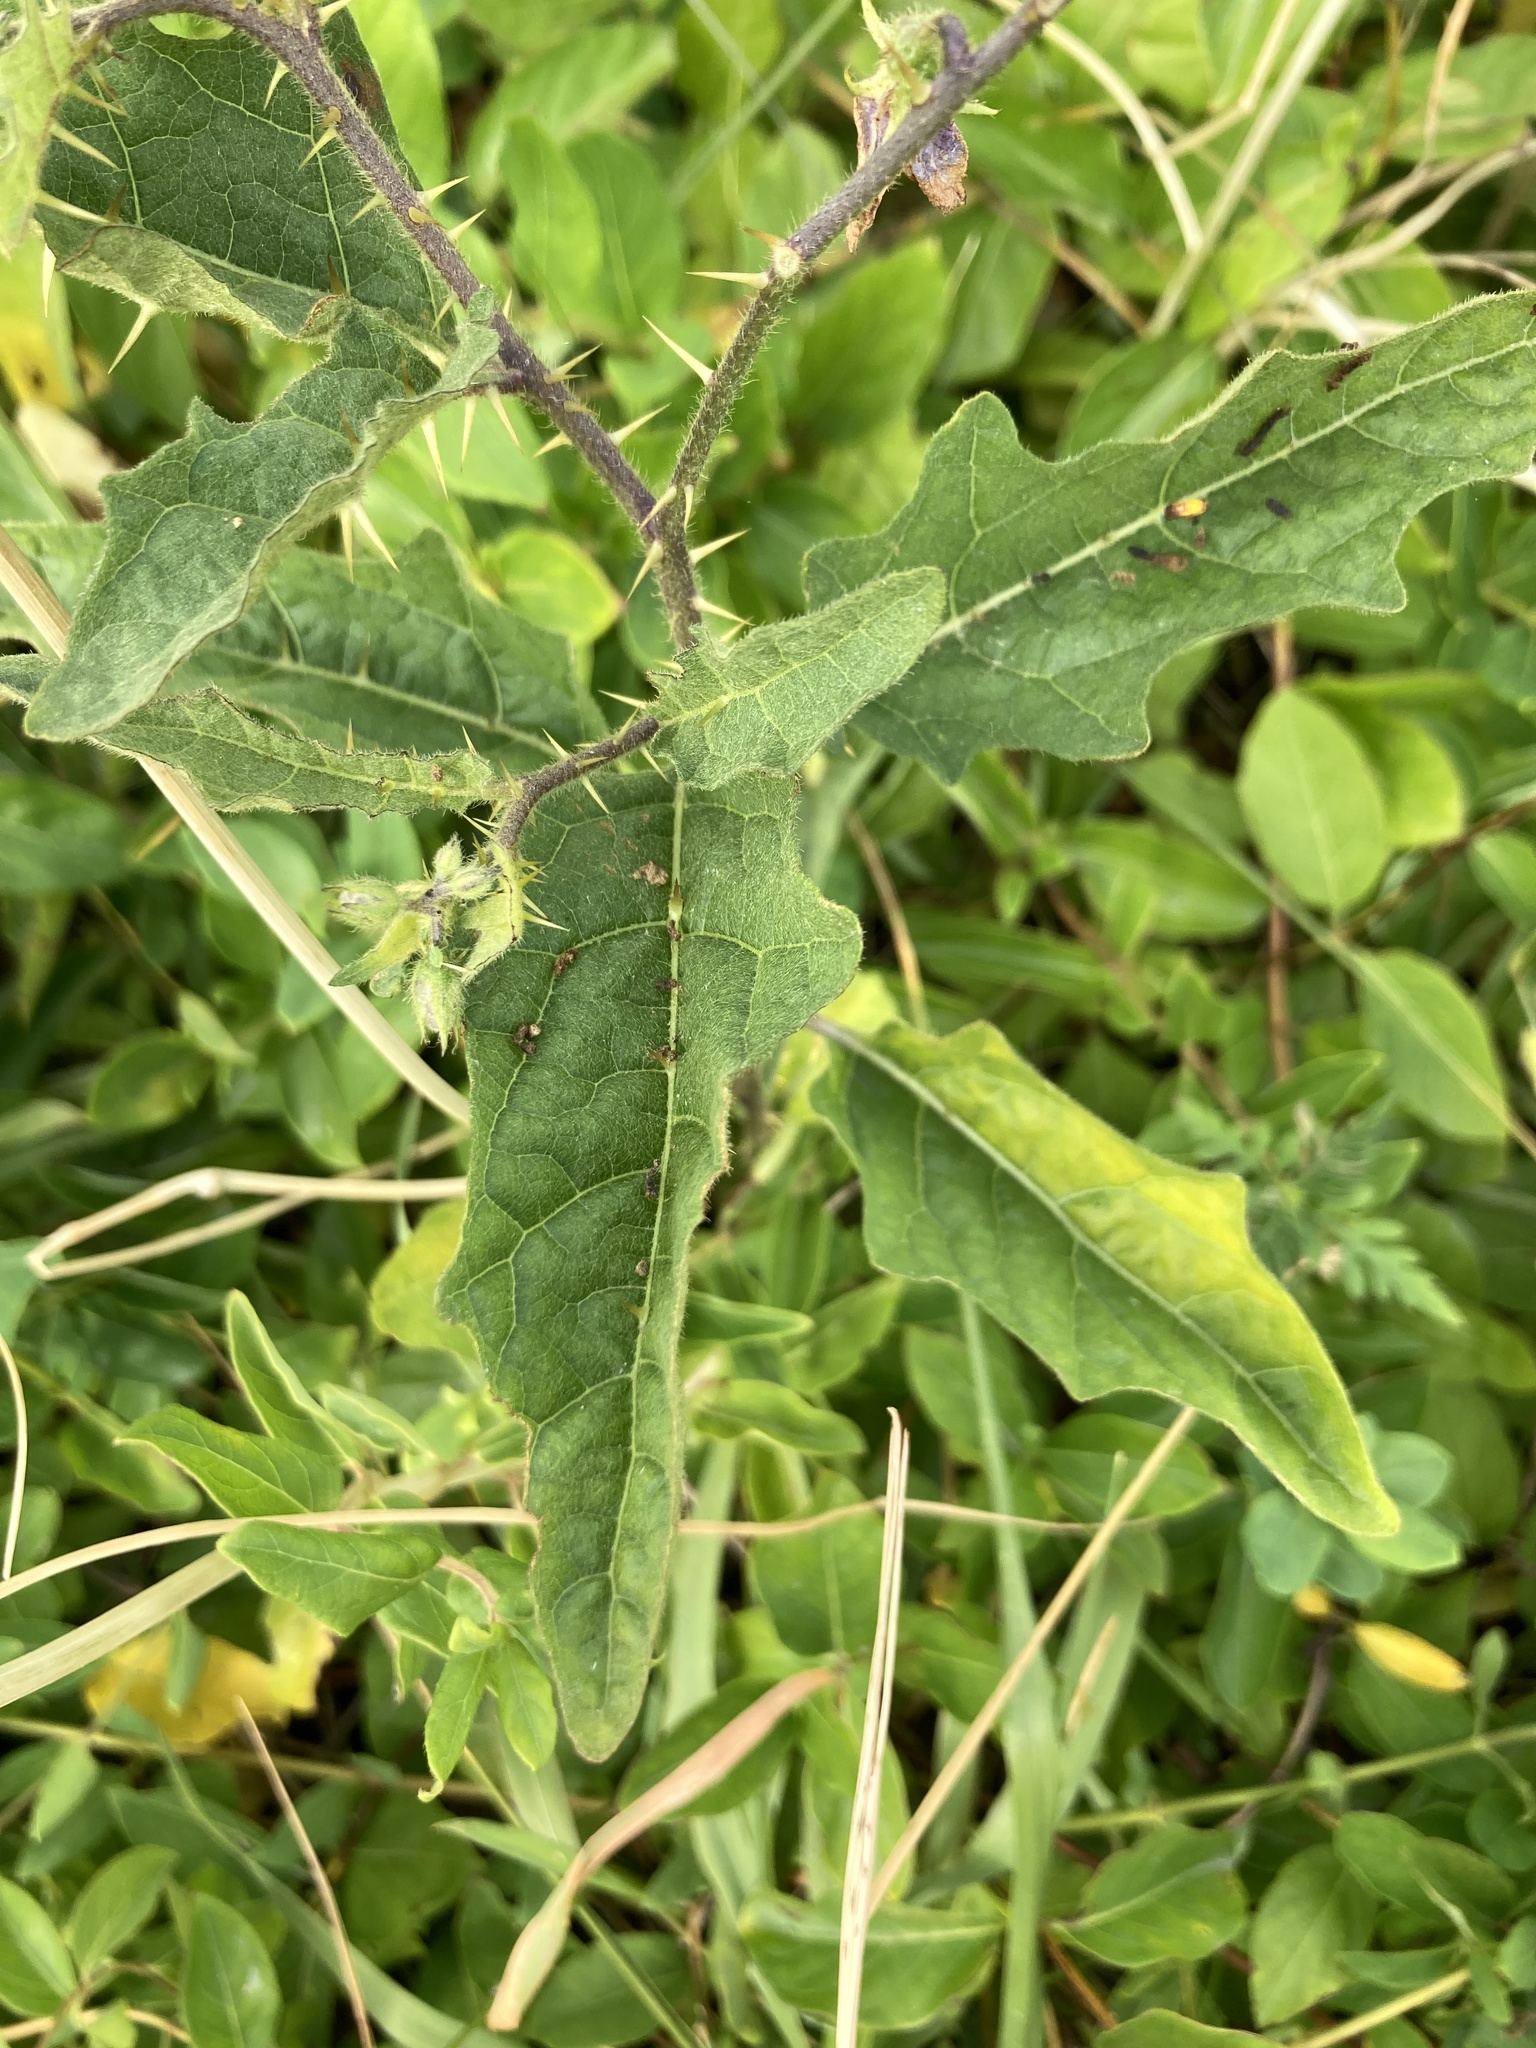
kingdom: Plantae
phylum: Tracheophyta
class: Magnoliopsida
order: Solanales
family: Solanaceae
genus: Solanum
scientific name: Solanum carolinense
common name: Horse-nettle
